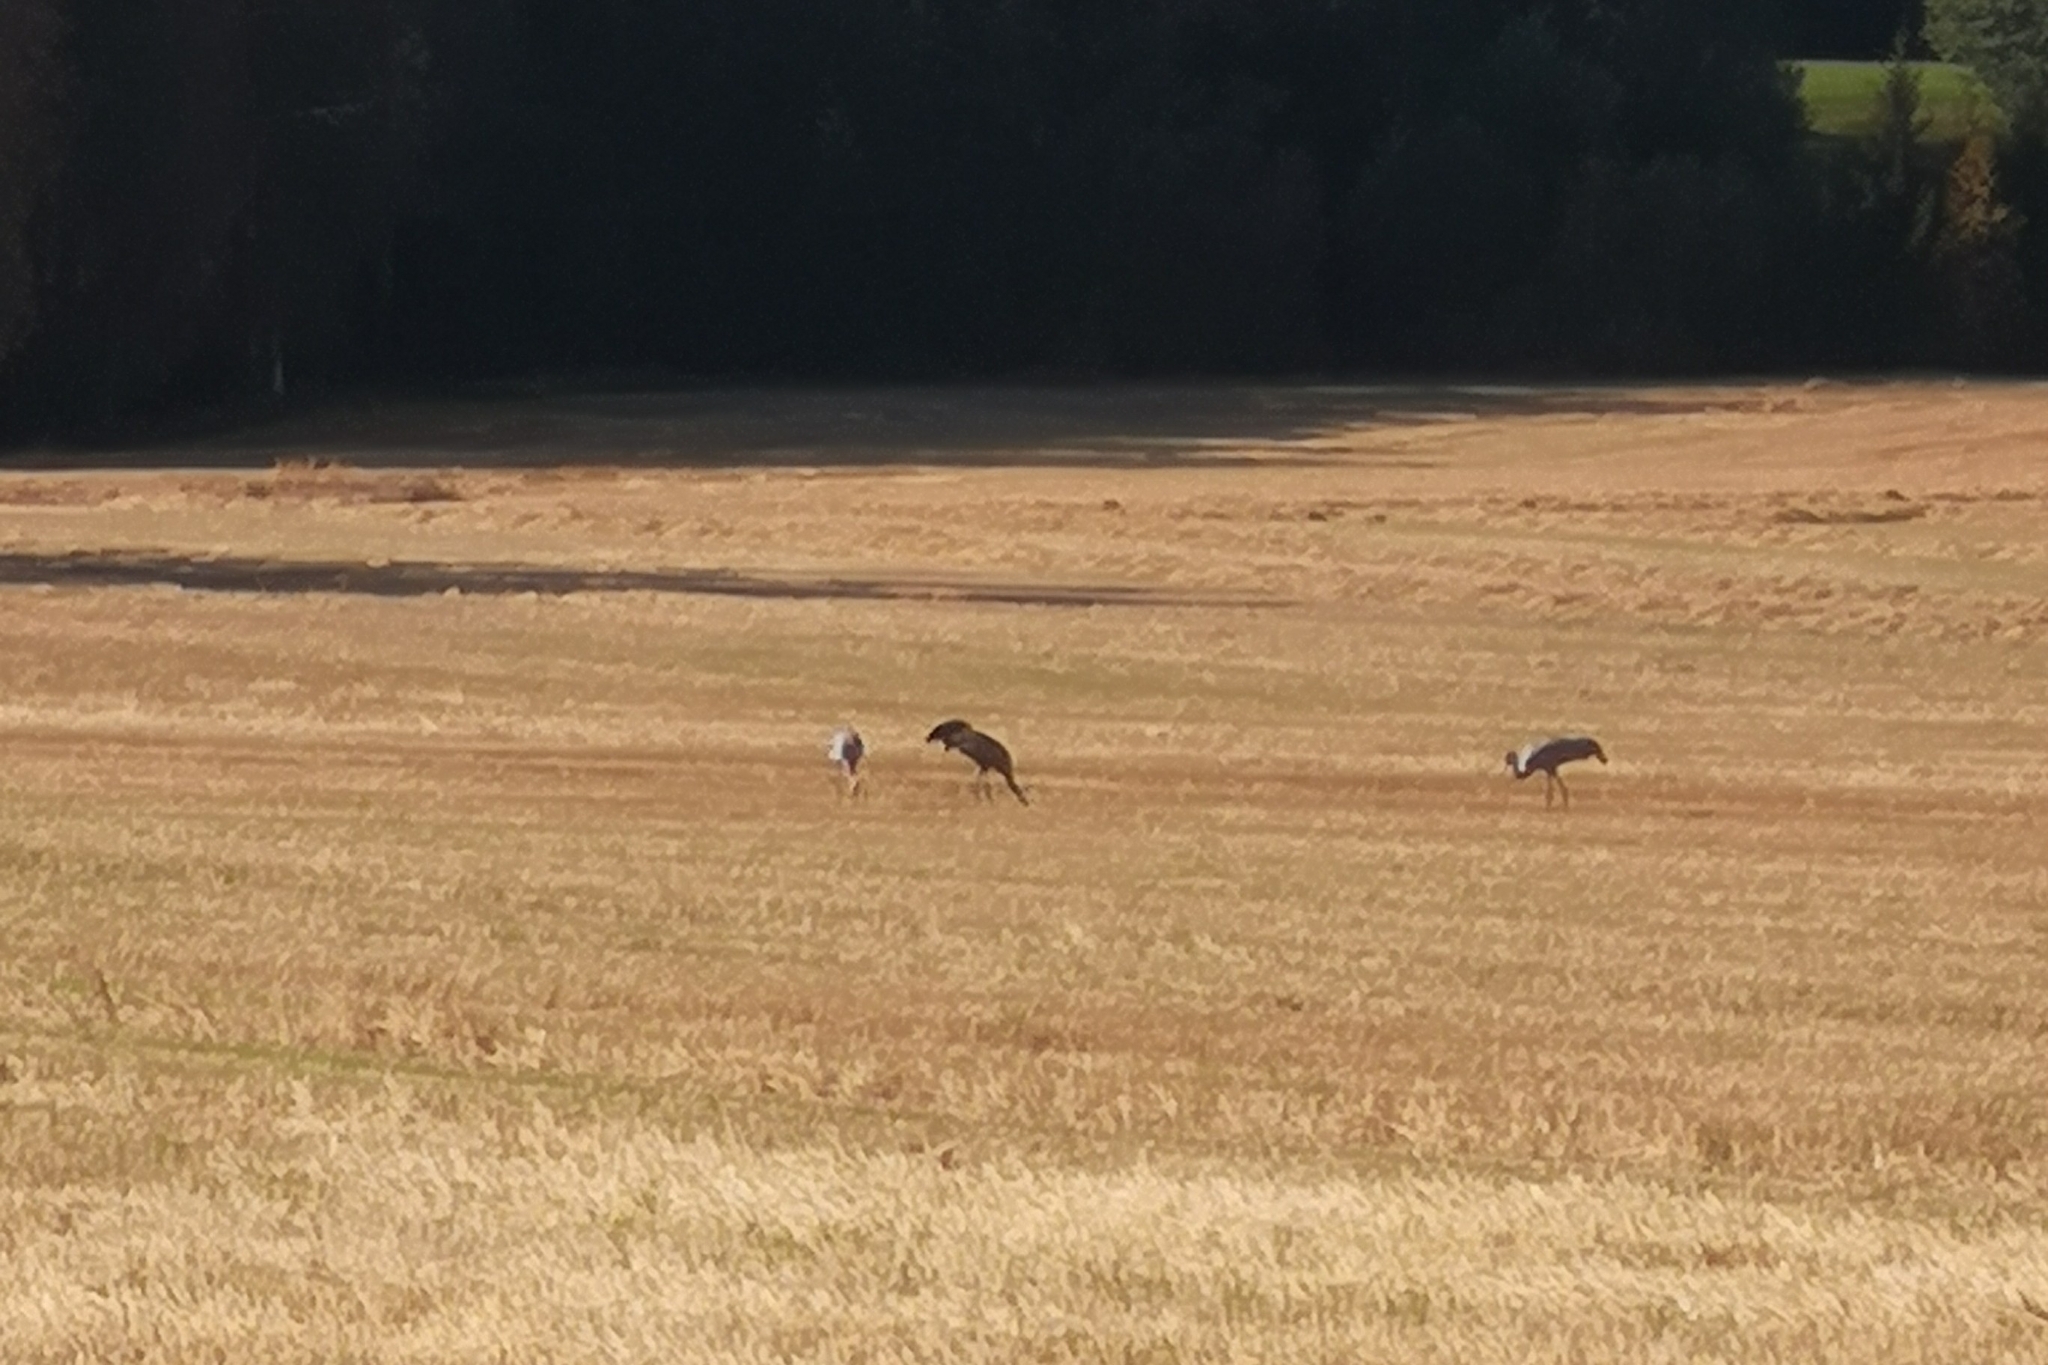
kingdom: Animalia
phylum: Chordata
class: Aves
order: Gruiformes
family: Gruidae
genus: Grus
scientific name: Grus grus
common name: Common crane
